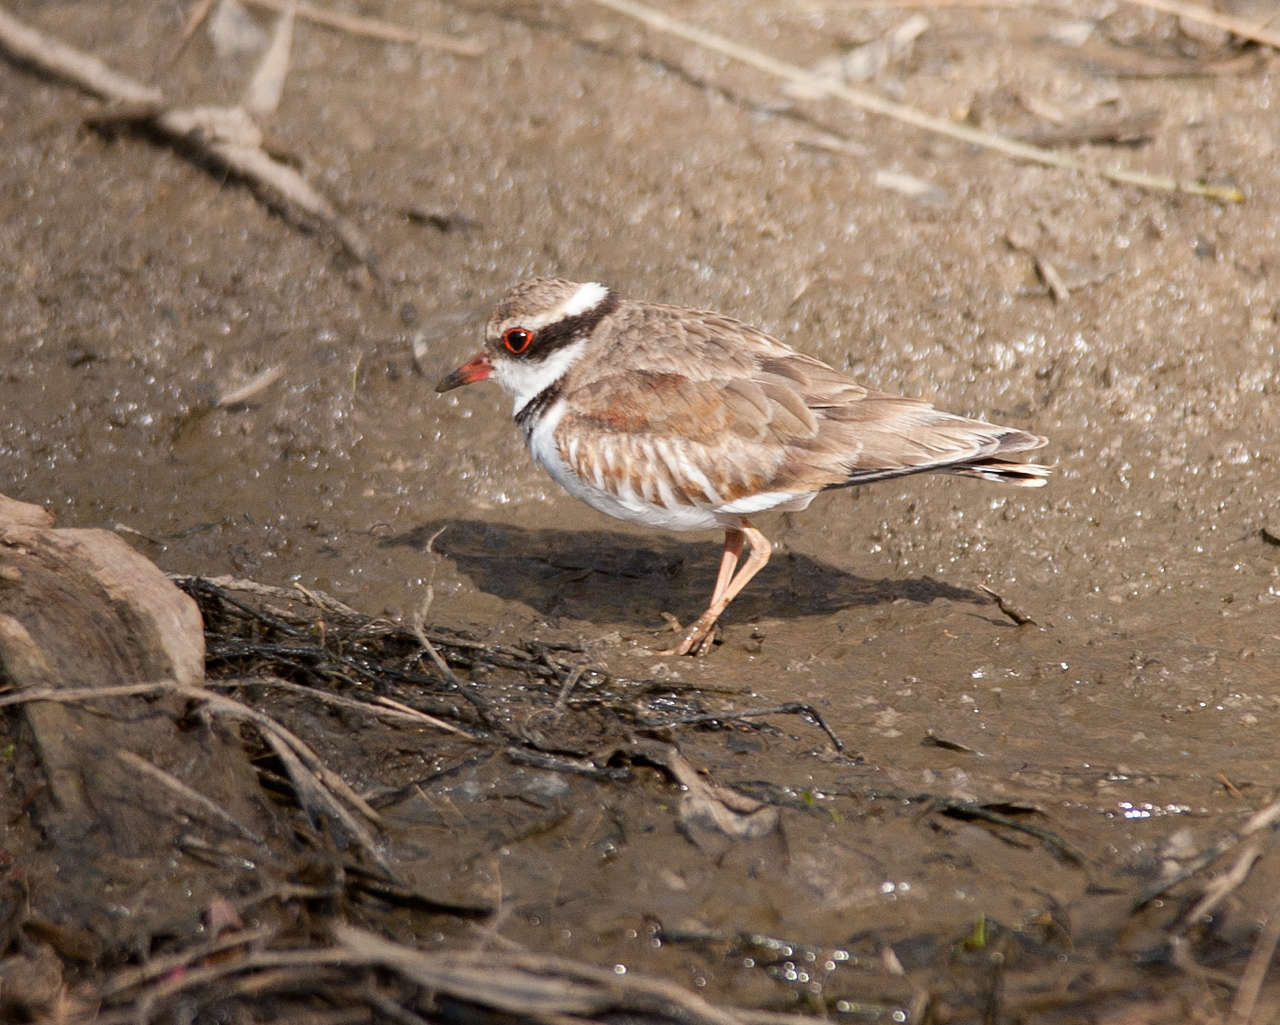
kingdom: Animalia
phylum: Chordata
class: Aves
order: Charadriiformes
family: Charadriidae
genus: Elseyornis
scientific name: Elseyornis melanops
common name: Black-fronted dotterel
